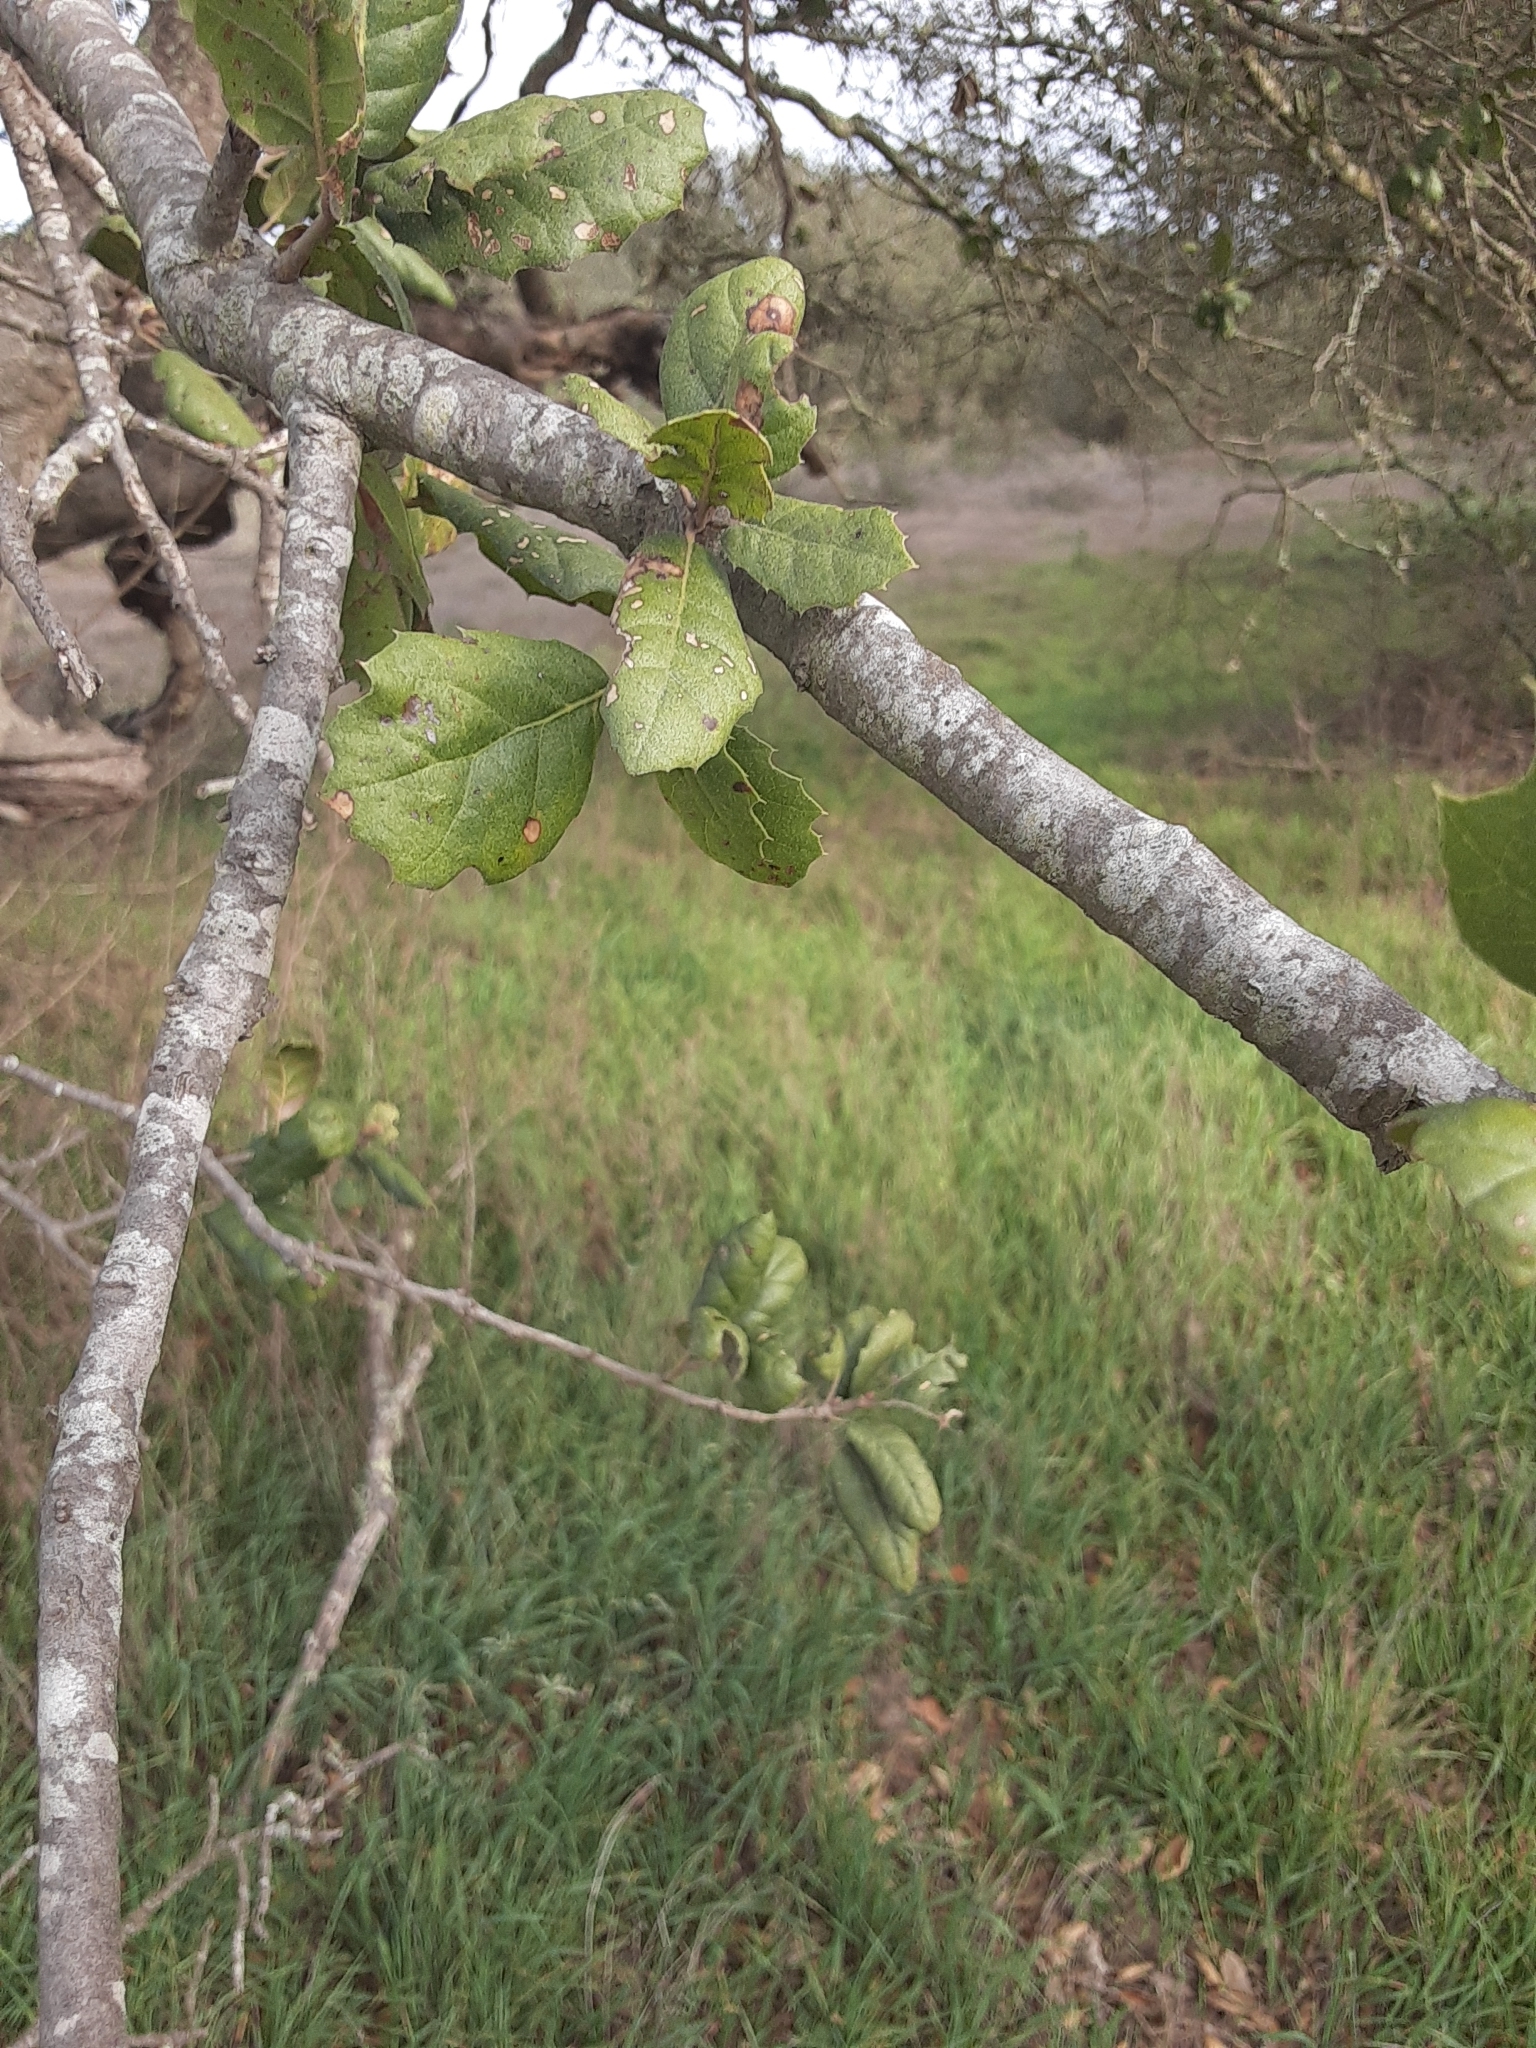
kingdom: Plantae
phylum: Tracheophyta
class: Magnoliopsida
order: Fagales
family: Fagaceae
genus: Quercus
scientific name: Quercus agrifolia
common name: California live oak
